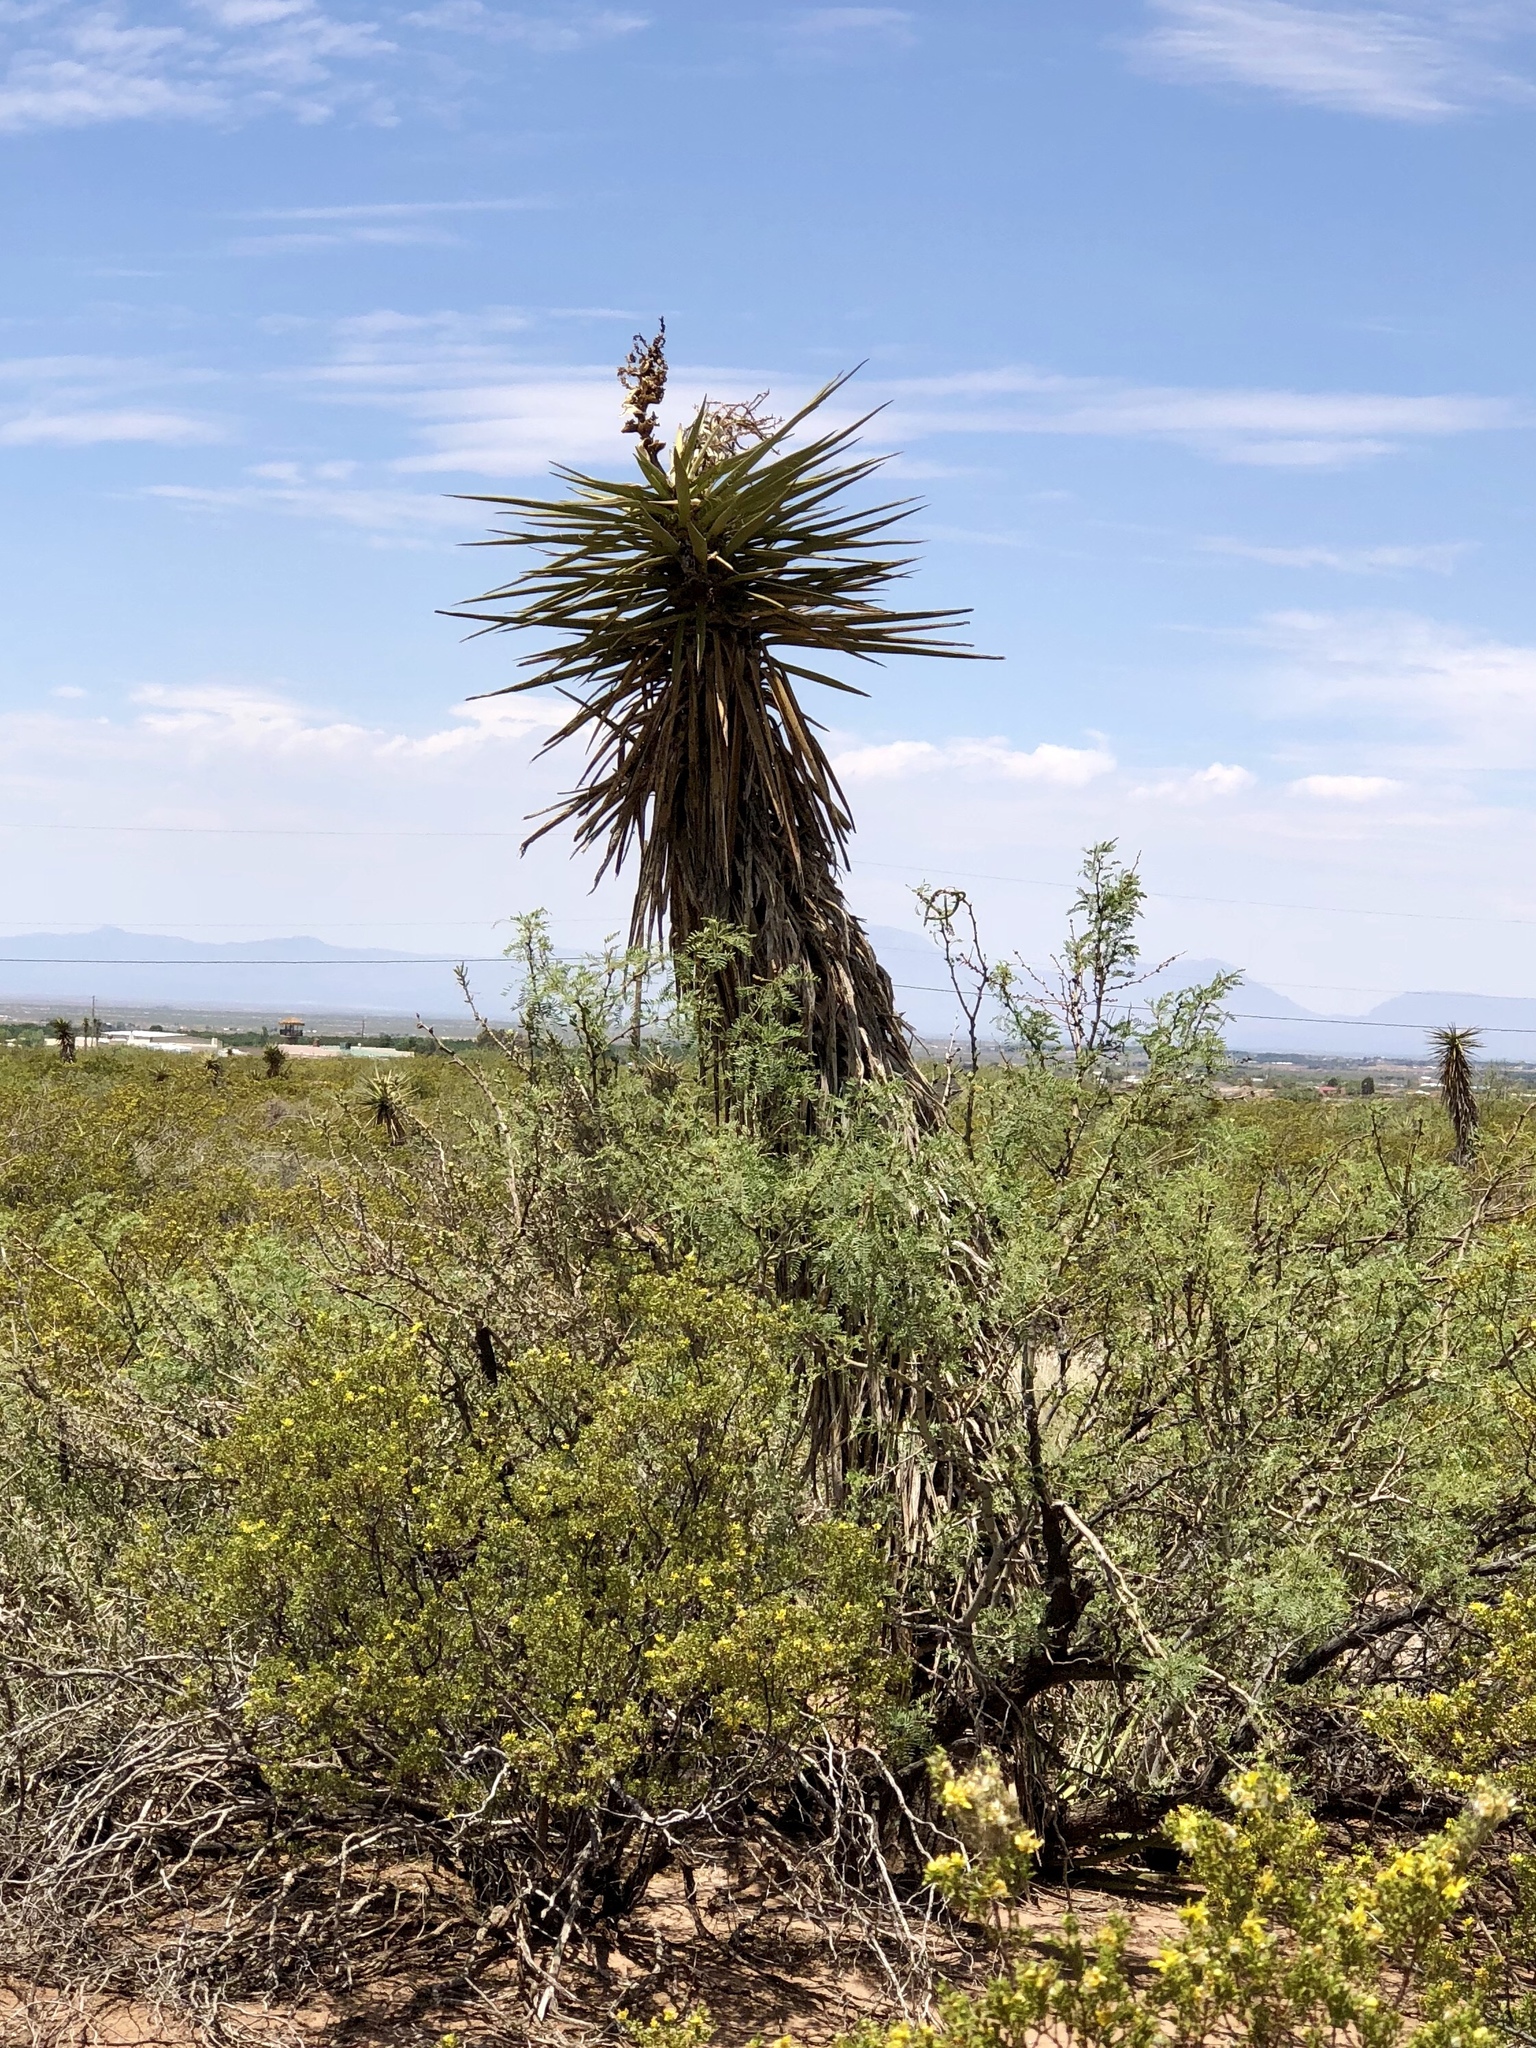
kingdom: Plantae
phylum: Tracheophyta
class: Liliopsida
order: Asparagales
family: Asparagaceae
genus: Yucca
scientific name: Yucca treculiana
